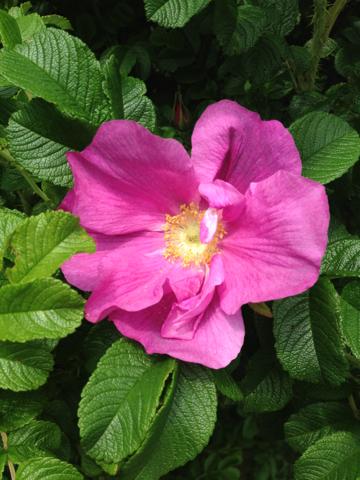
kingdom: Plantae
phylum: Tracheophyta
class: Magnoliopsida
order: Rosales
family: Rosaceae
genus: Rosa
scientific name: Rosa rugosa
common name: Japanese rose
